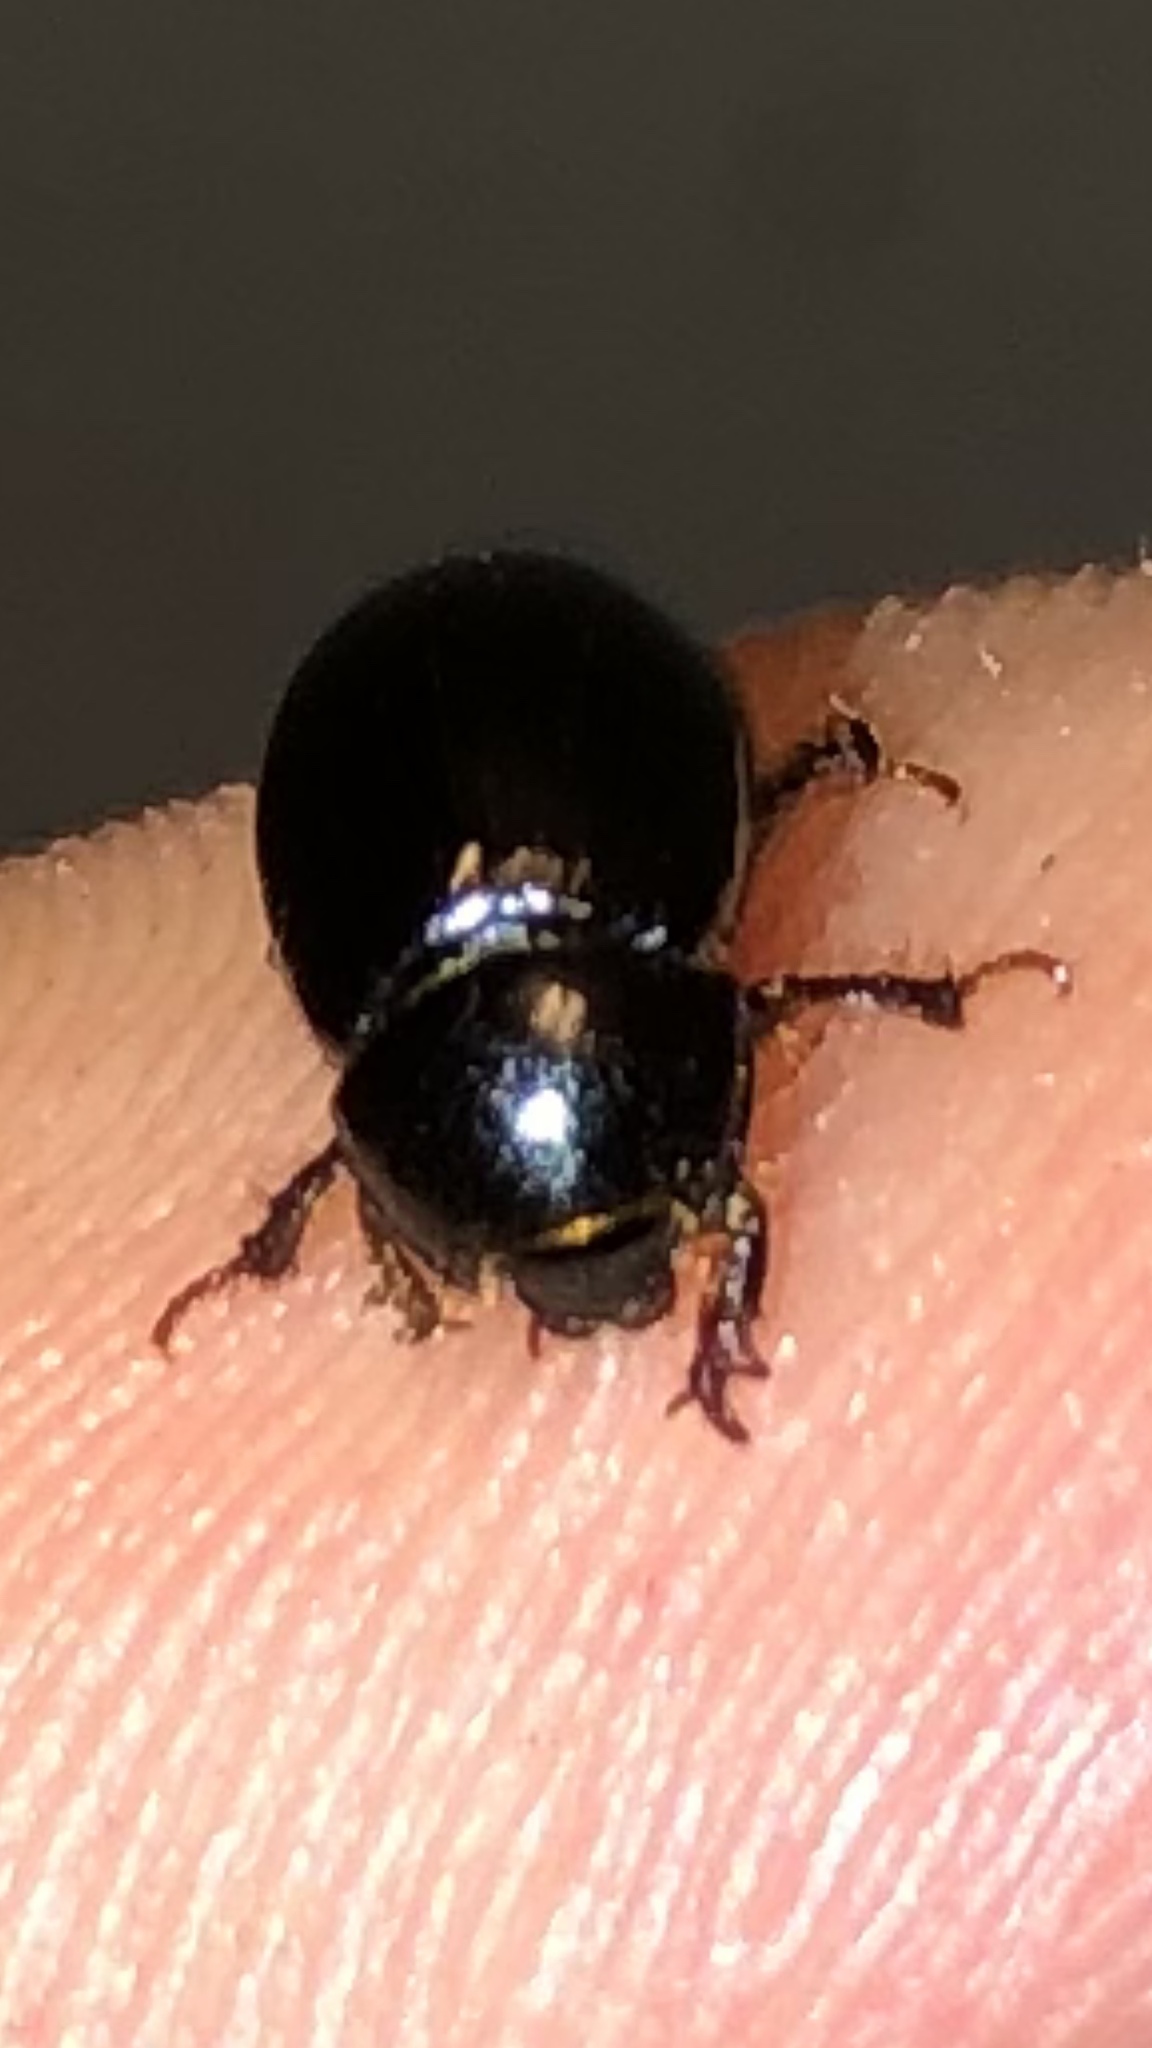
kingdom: Animalia
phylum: Arthropoda
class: Insecta
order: Coleoptera
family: Hybosoridae
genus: Hybosorus
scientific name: Hybosorus illigeri
